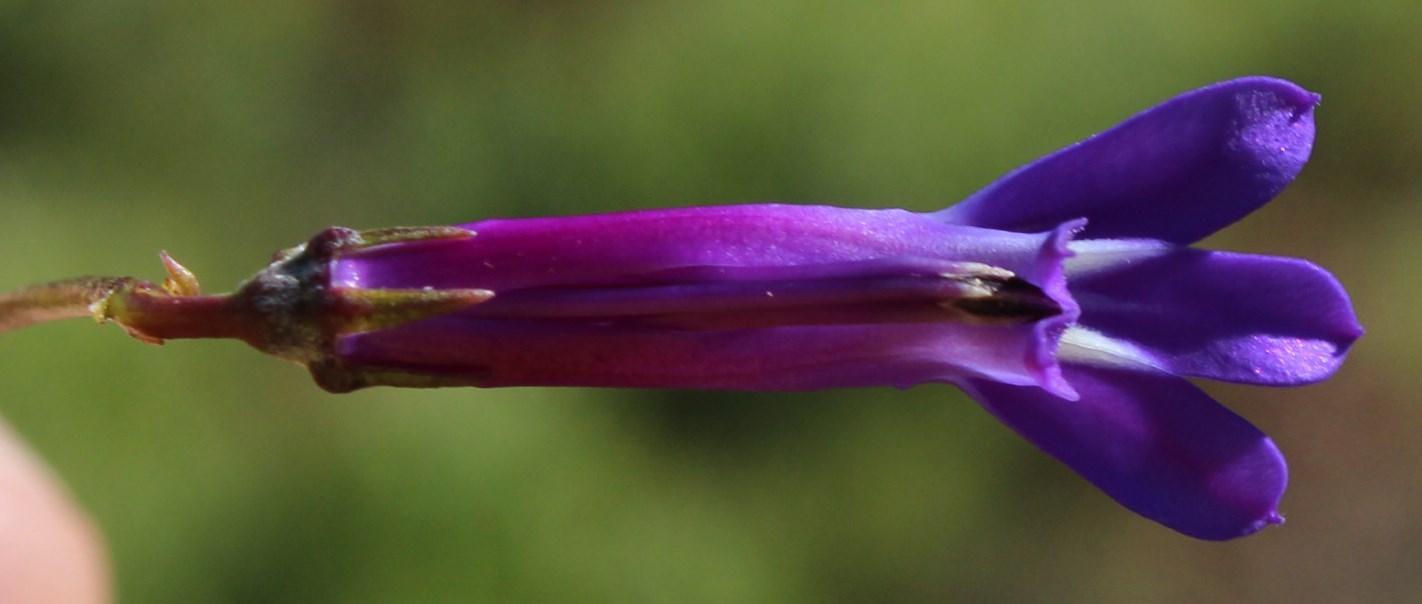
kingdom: Plantae
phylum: Tracheophyta
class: Magnoliopsida
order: Asterales
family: Campanulaceae
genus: Lobelia
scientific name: Lobelia coronopifolia
